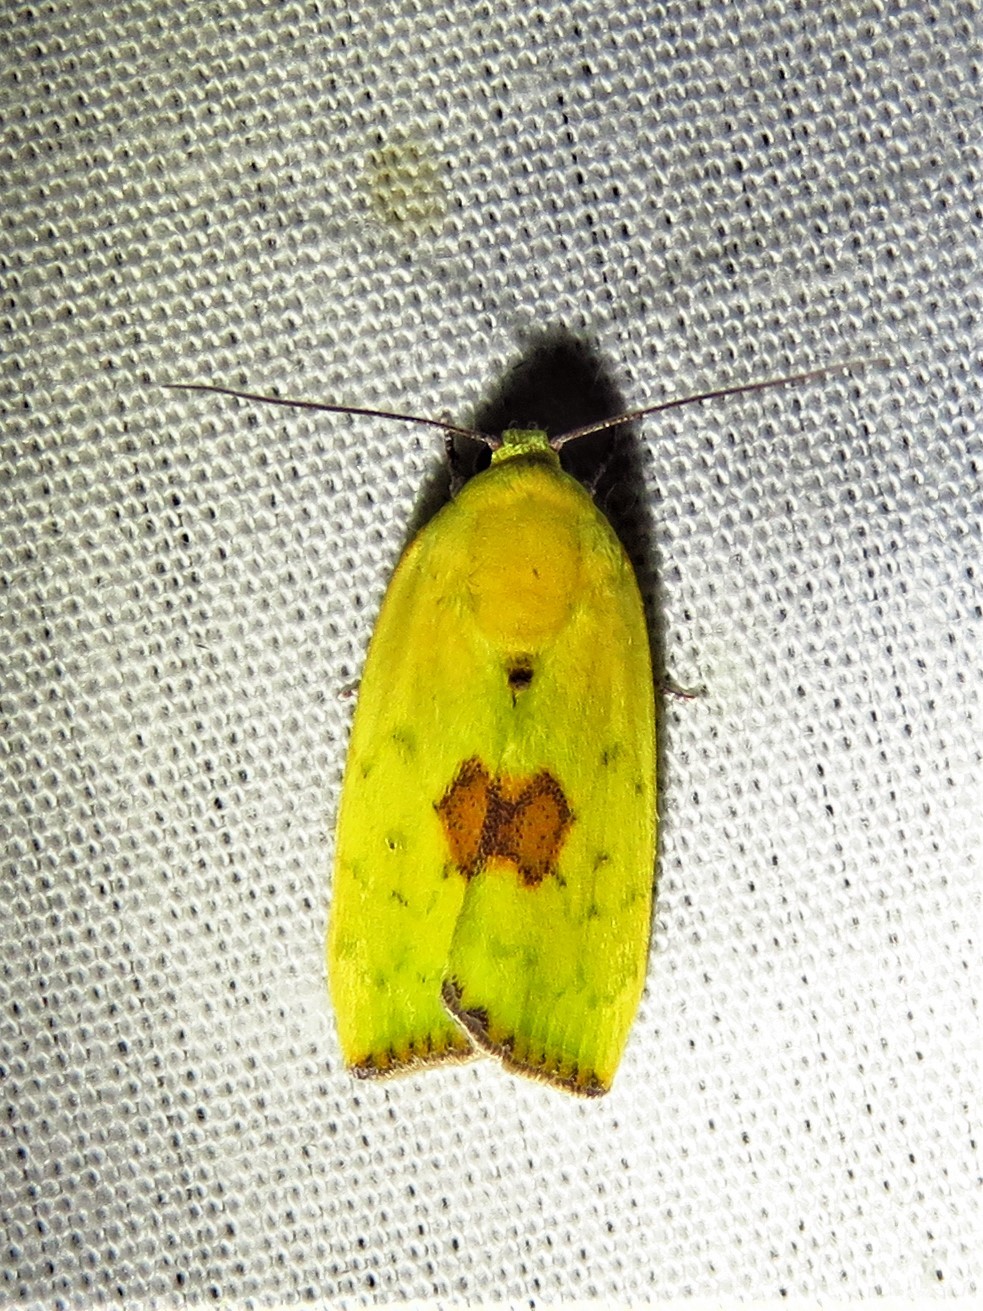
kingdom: Animalia
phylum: Arthropoda
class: Insecta
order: Lepidoptera
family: Nolidae
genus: Earias
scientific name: Earias biplaga
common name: Spiny bollworm
